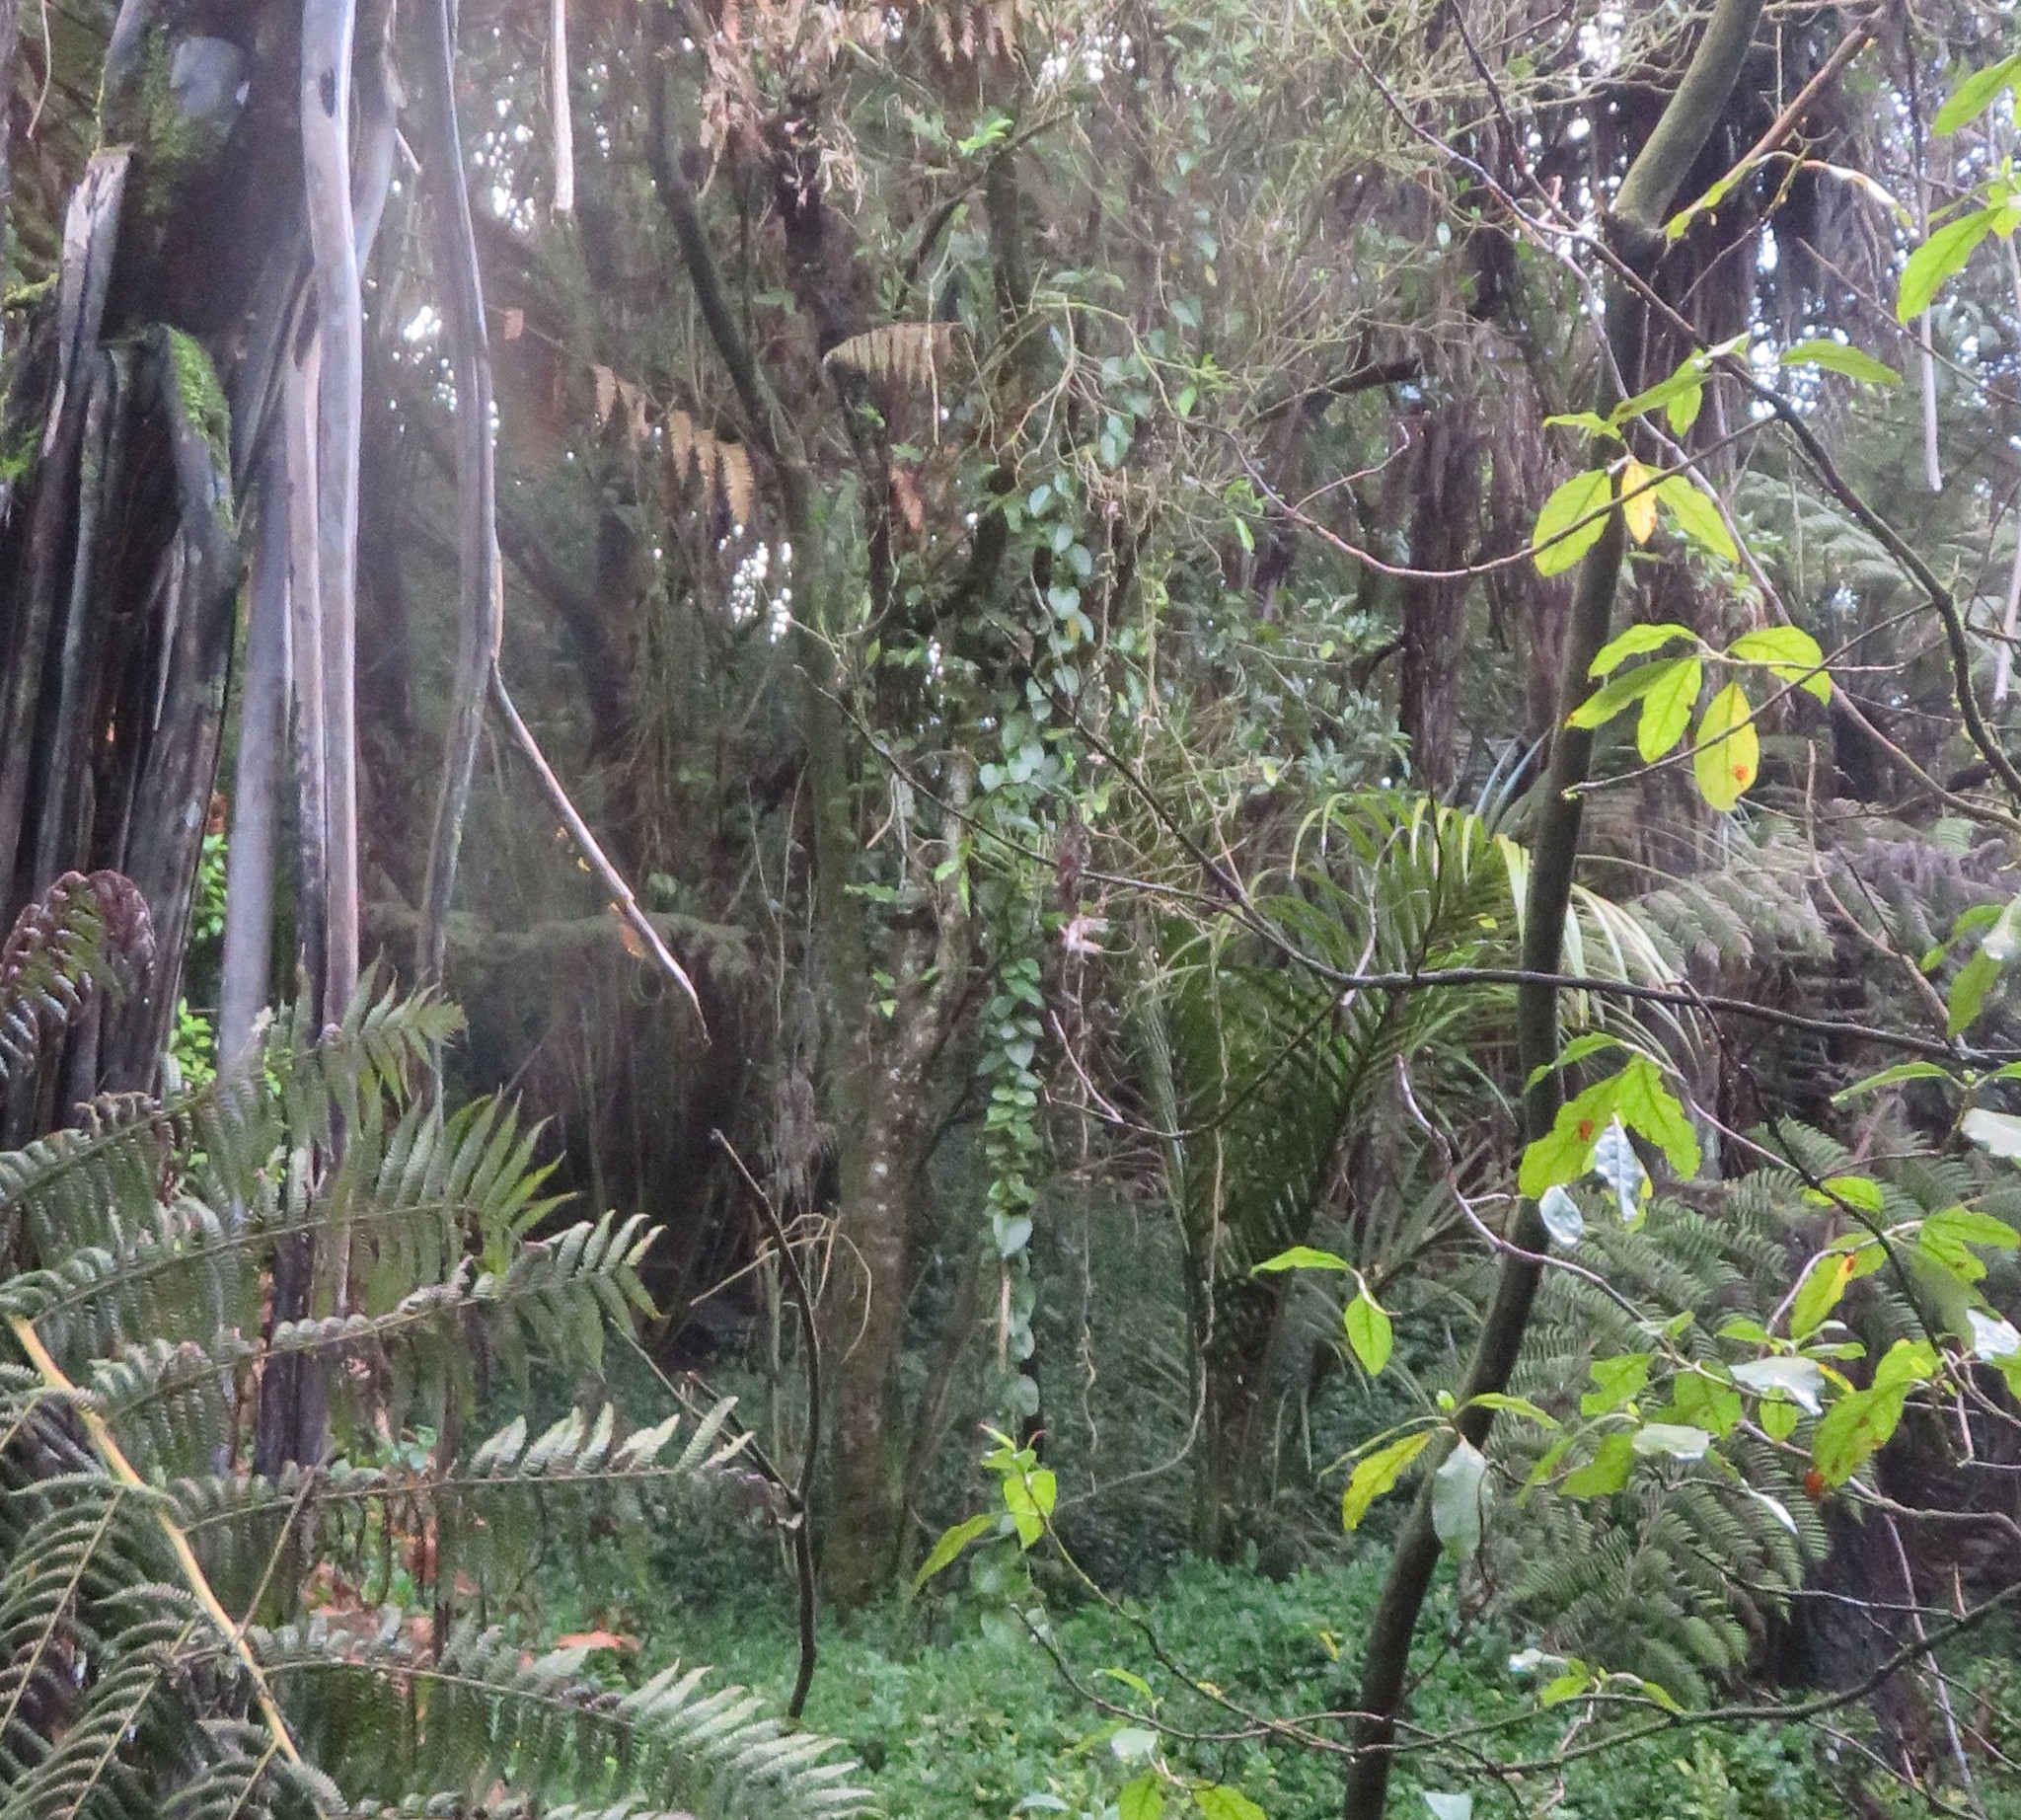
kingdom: Plantae
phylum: Tracheophyta
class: Magnoliopsida
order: Caryophyllales
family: Basellaceae
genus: Anredera
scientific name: Anredera cordifolia
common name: Heartleaf madeiravine
